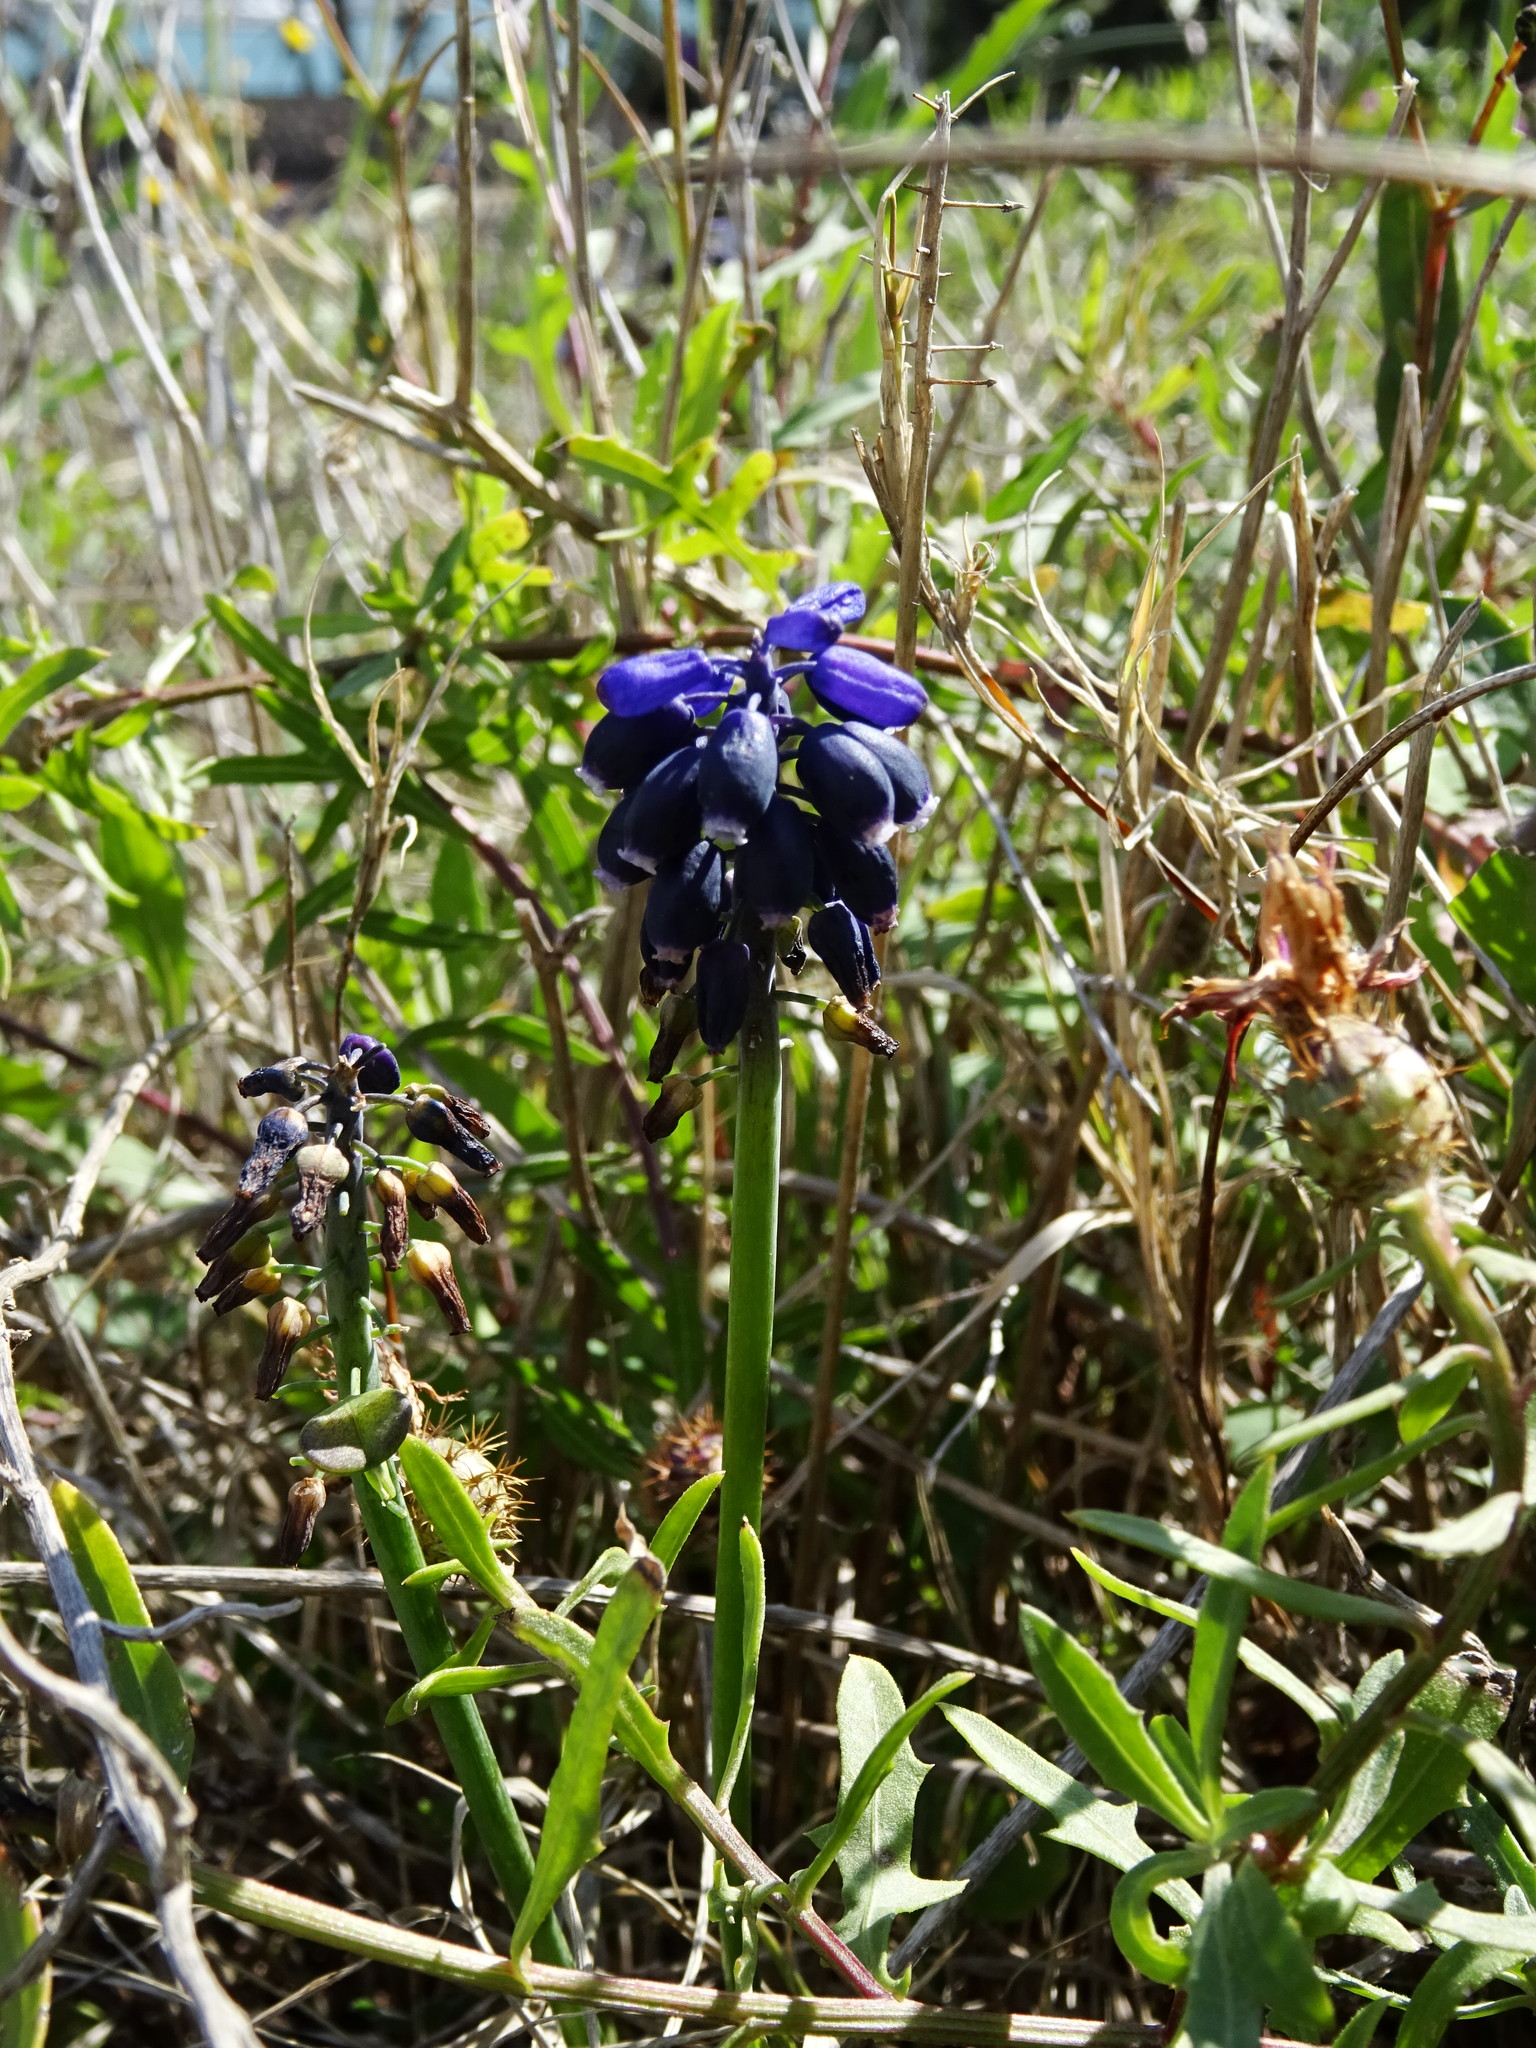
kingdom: Plantae
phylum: Tracheophyta
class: Liliopsida
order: Asparagales
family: Asparagaceae
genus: Muscari
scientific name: Muscari neglectum
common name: Grape-hyacinth
